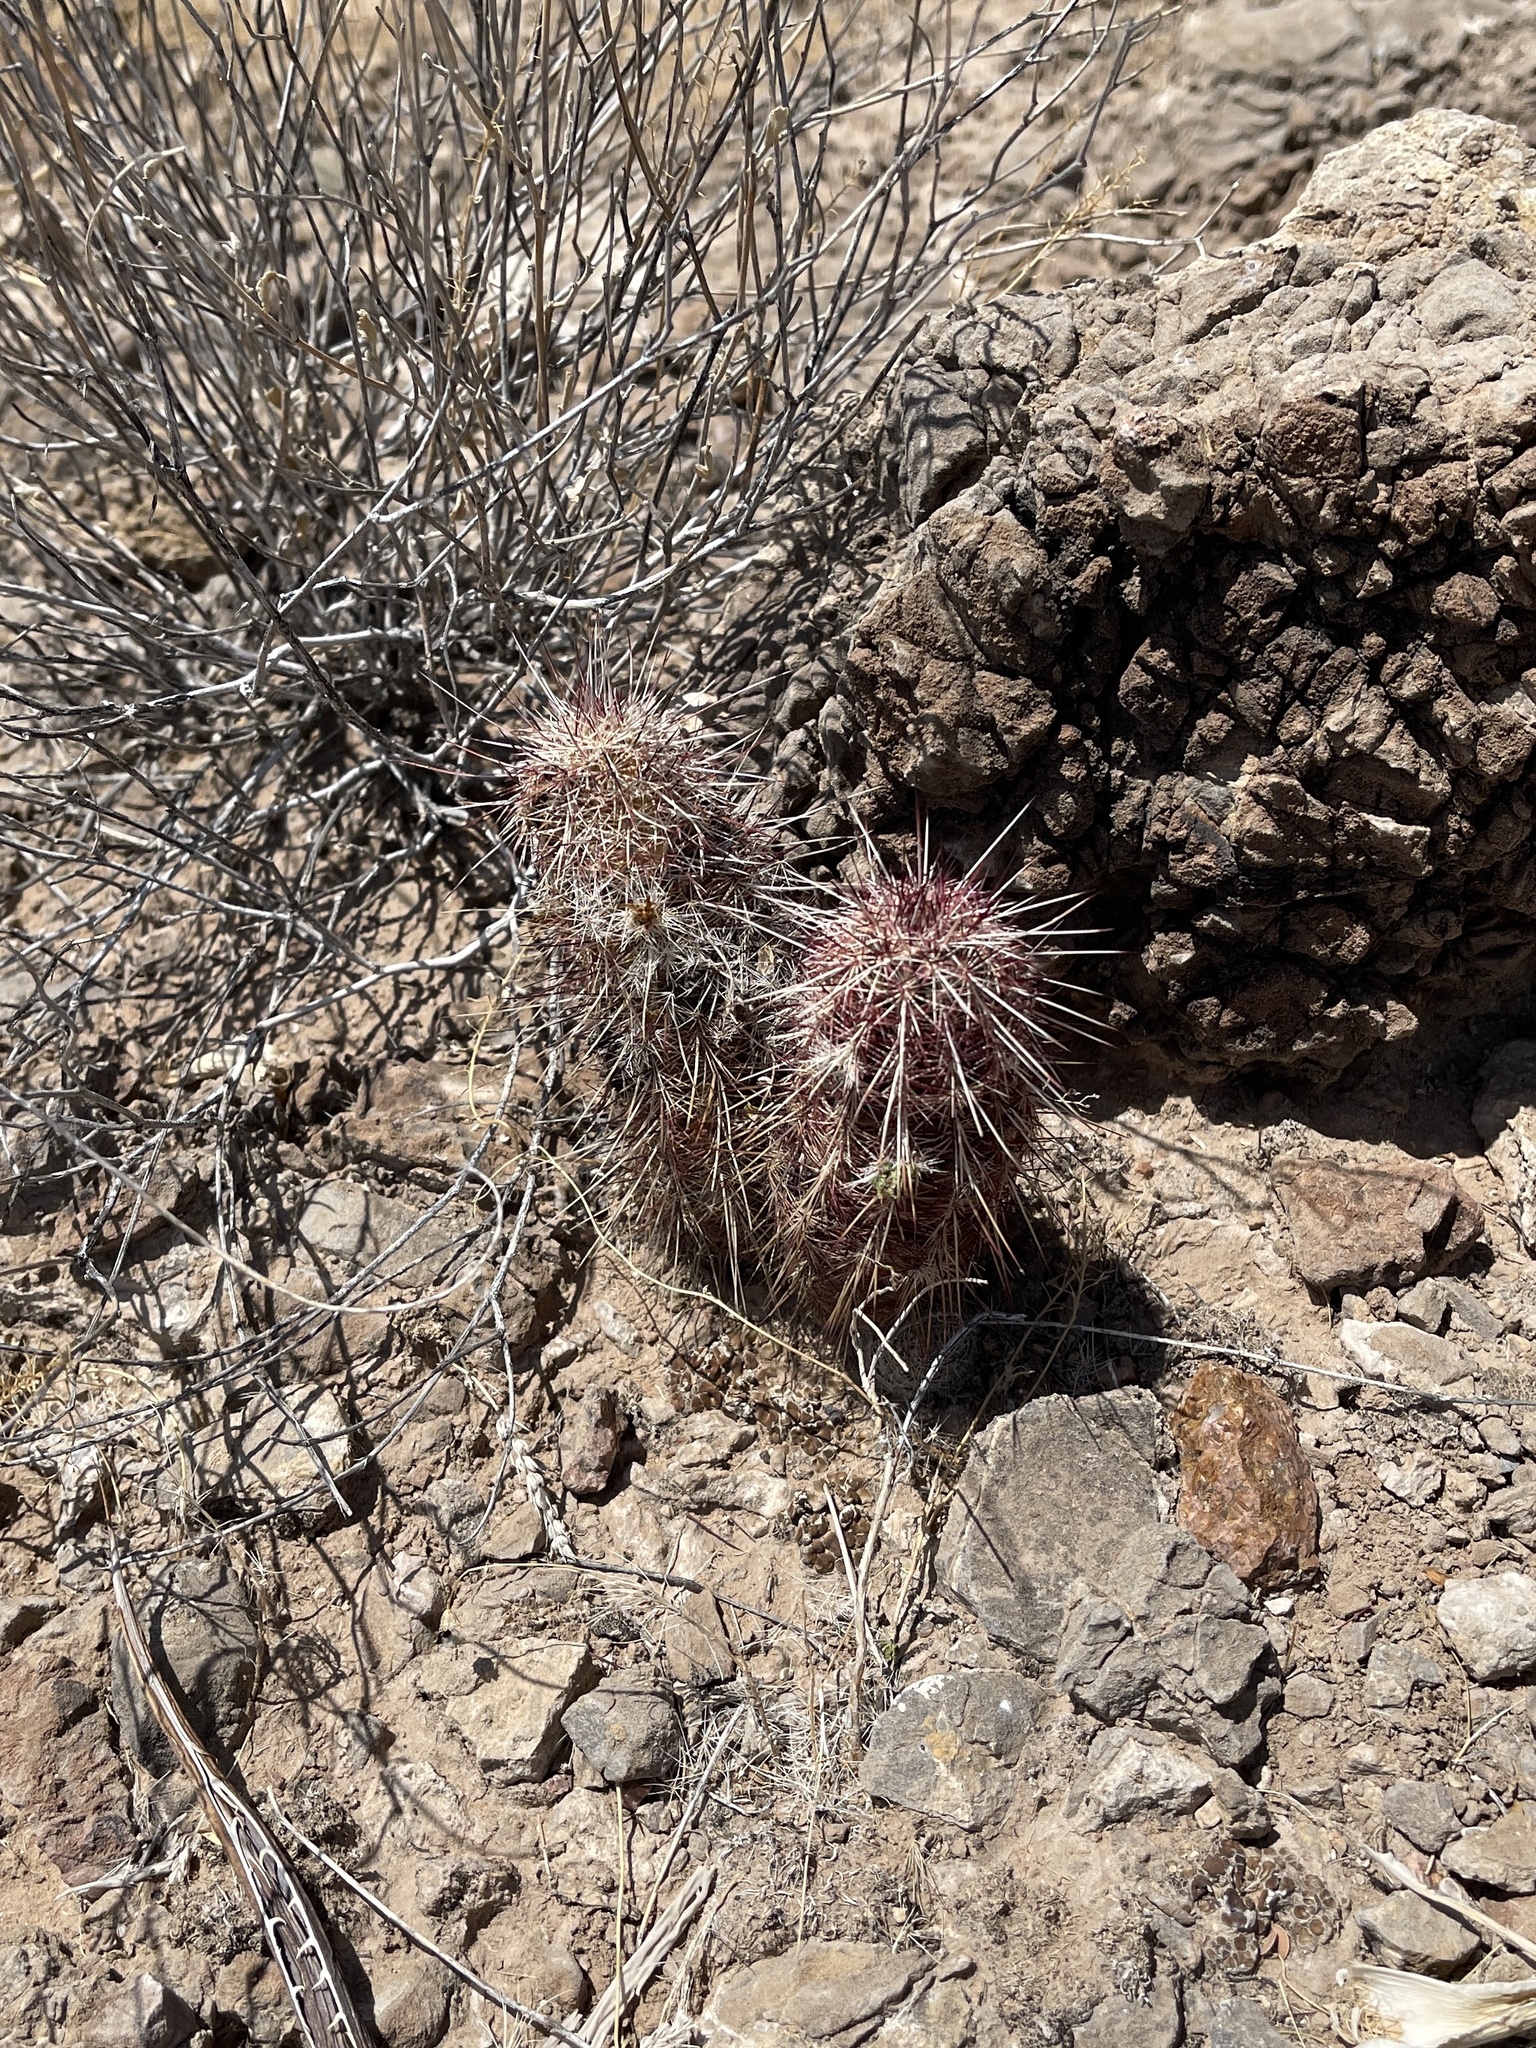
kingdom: Plantae
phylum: Tracheophyta
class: Magnoliopsida
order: Caryophyllales
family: Cactaceae
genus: Echinocereus
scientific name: Echinocereus viridiflorus
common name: Nylon hedgehog cactus
